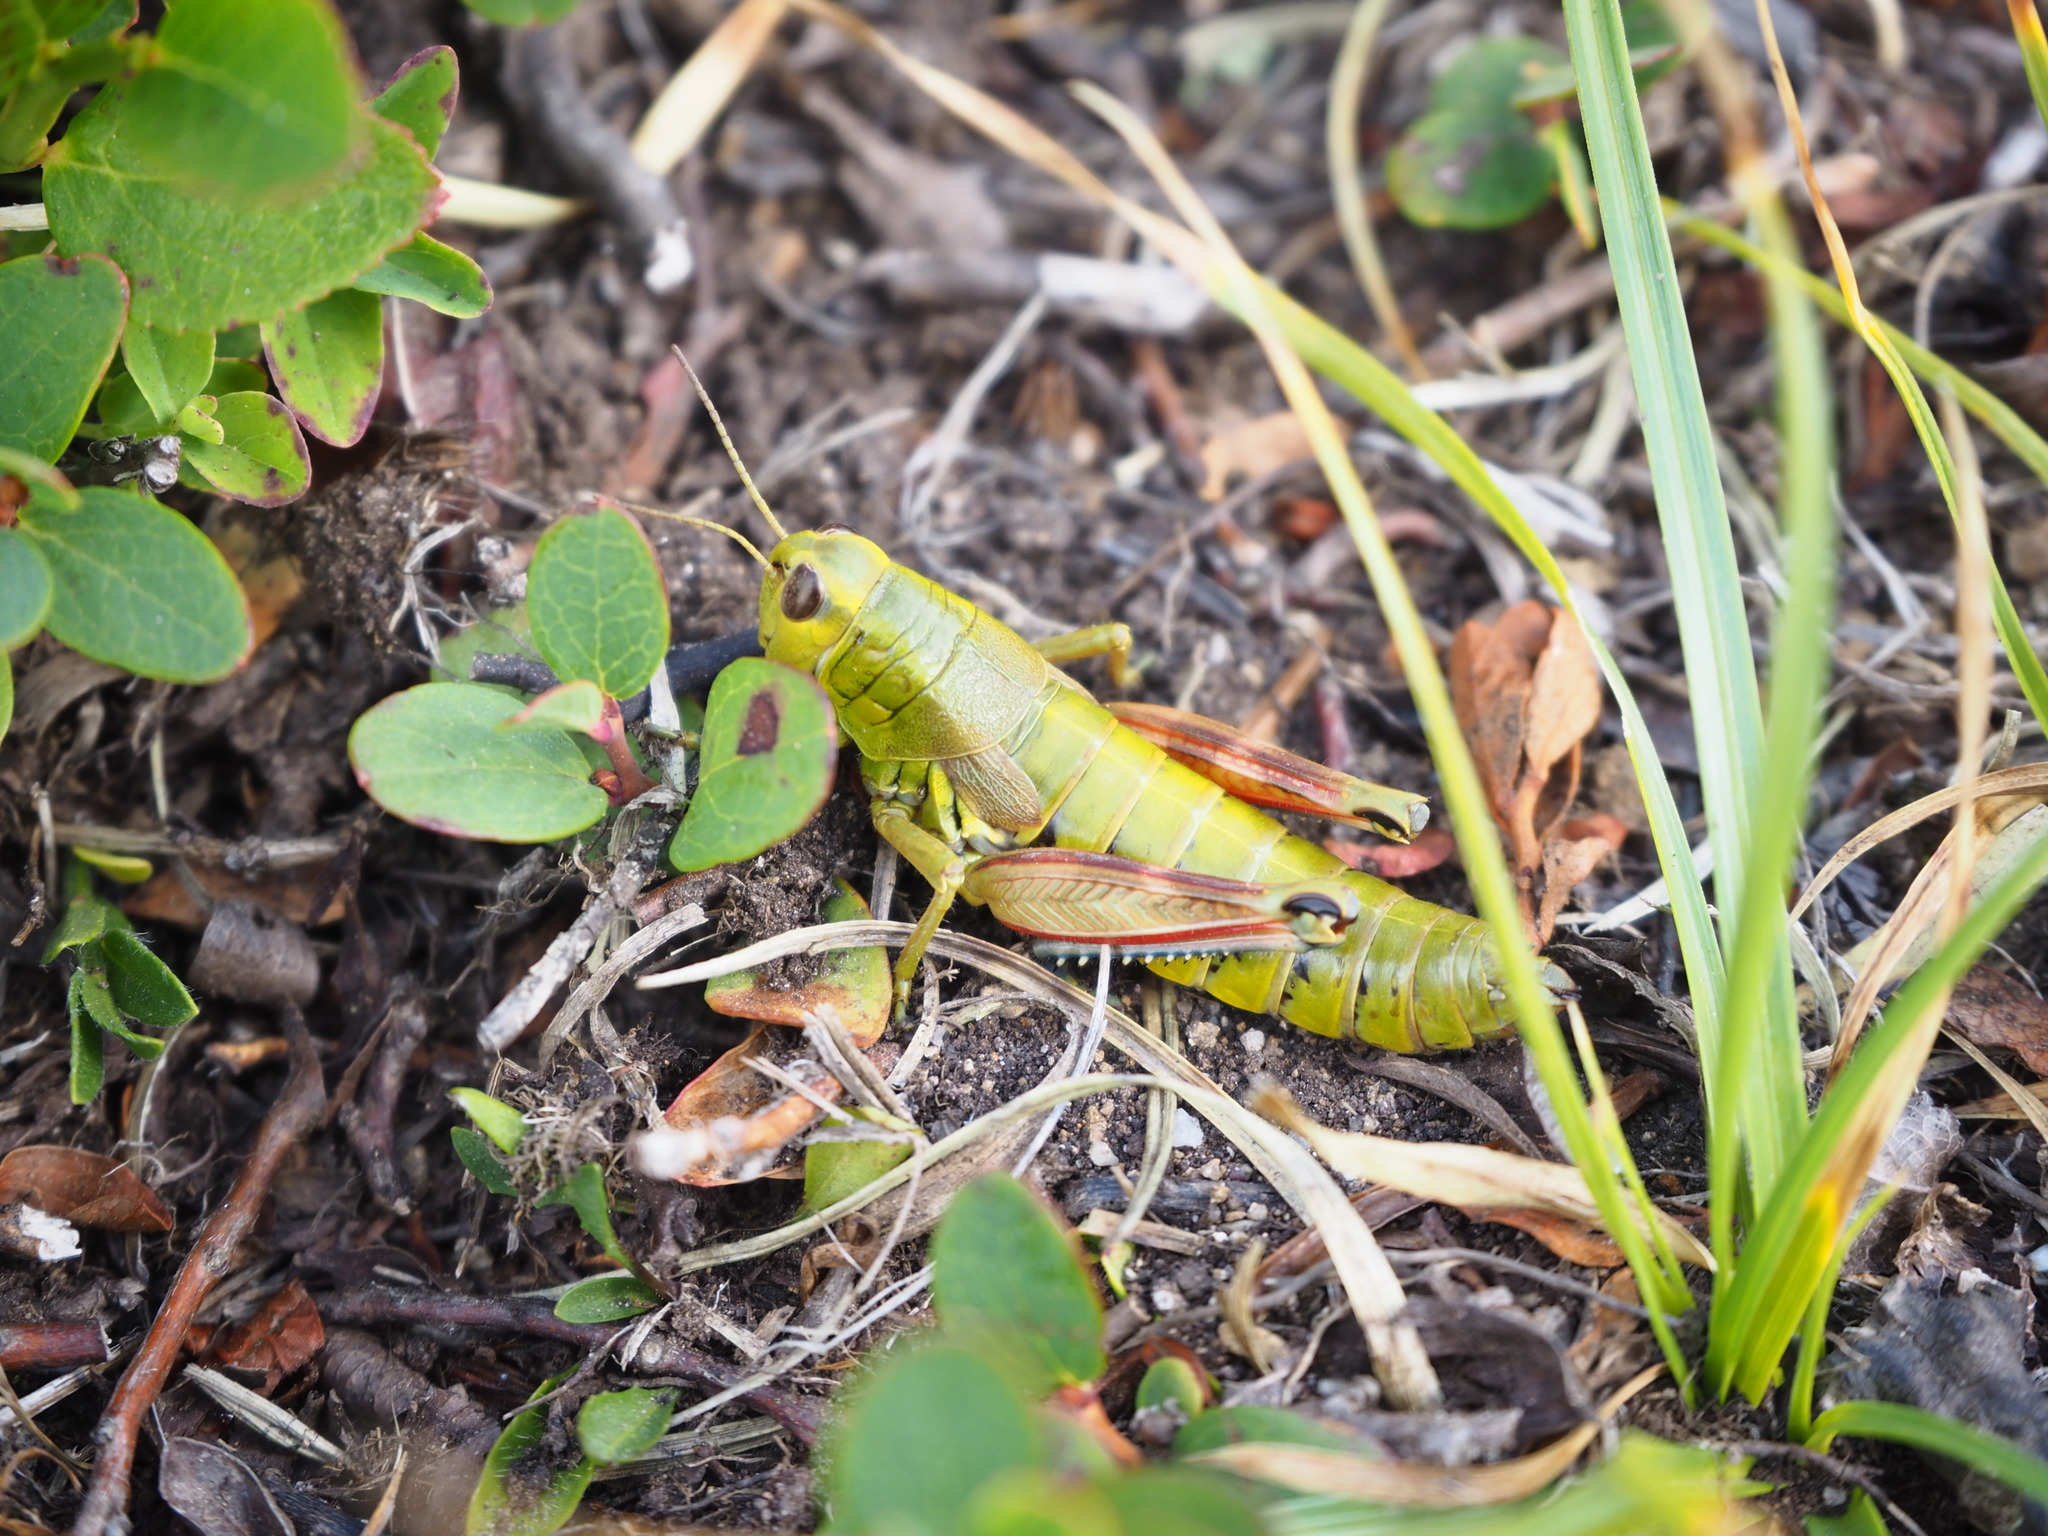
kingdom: Animalia
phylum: Arthropoda
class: Insecta
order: Orthoptera
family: Acrididae
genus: Podisma
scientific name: Podisma emiliae
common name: Emilia mountain grasshopper
